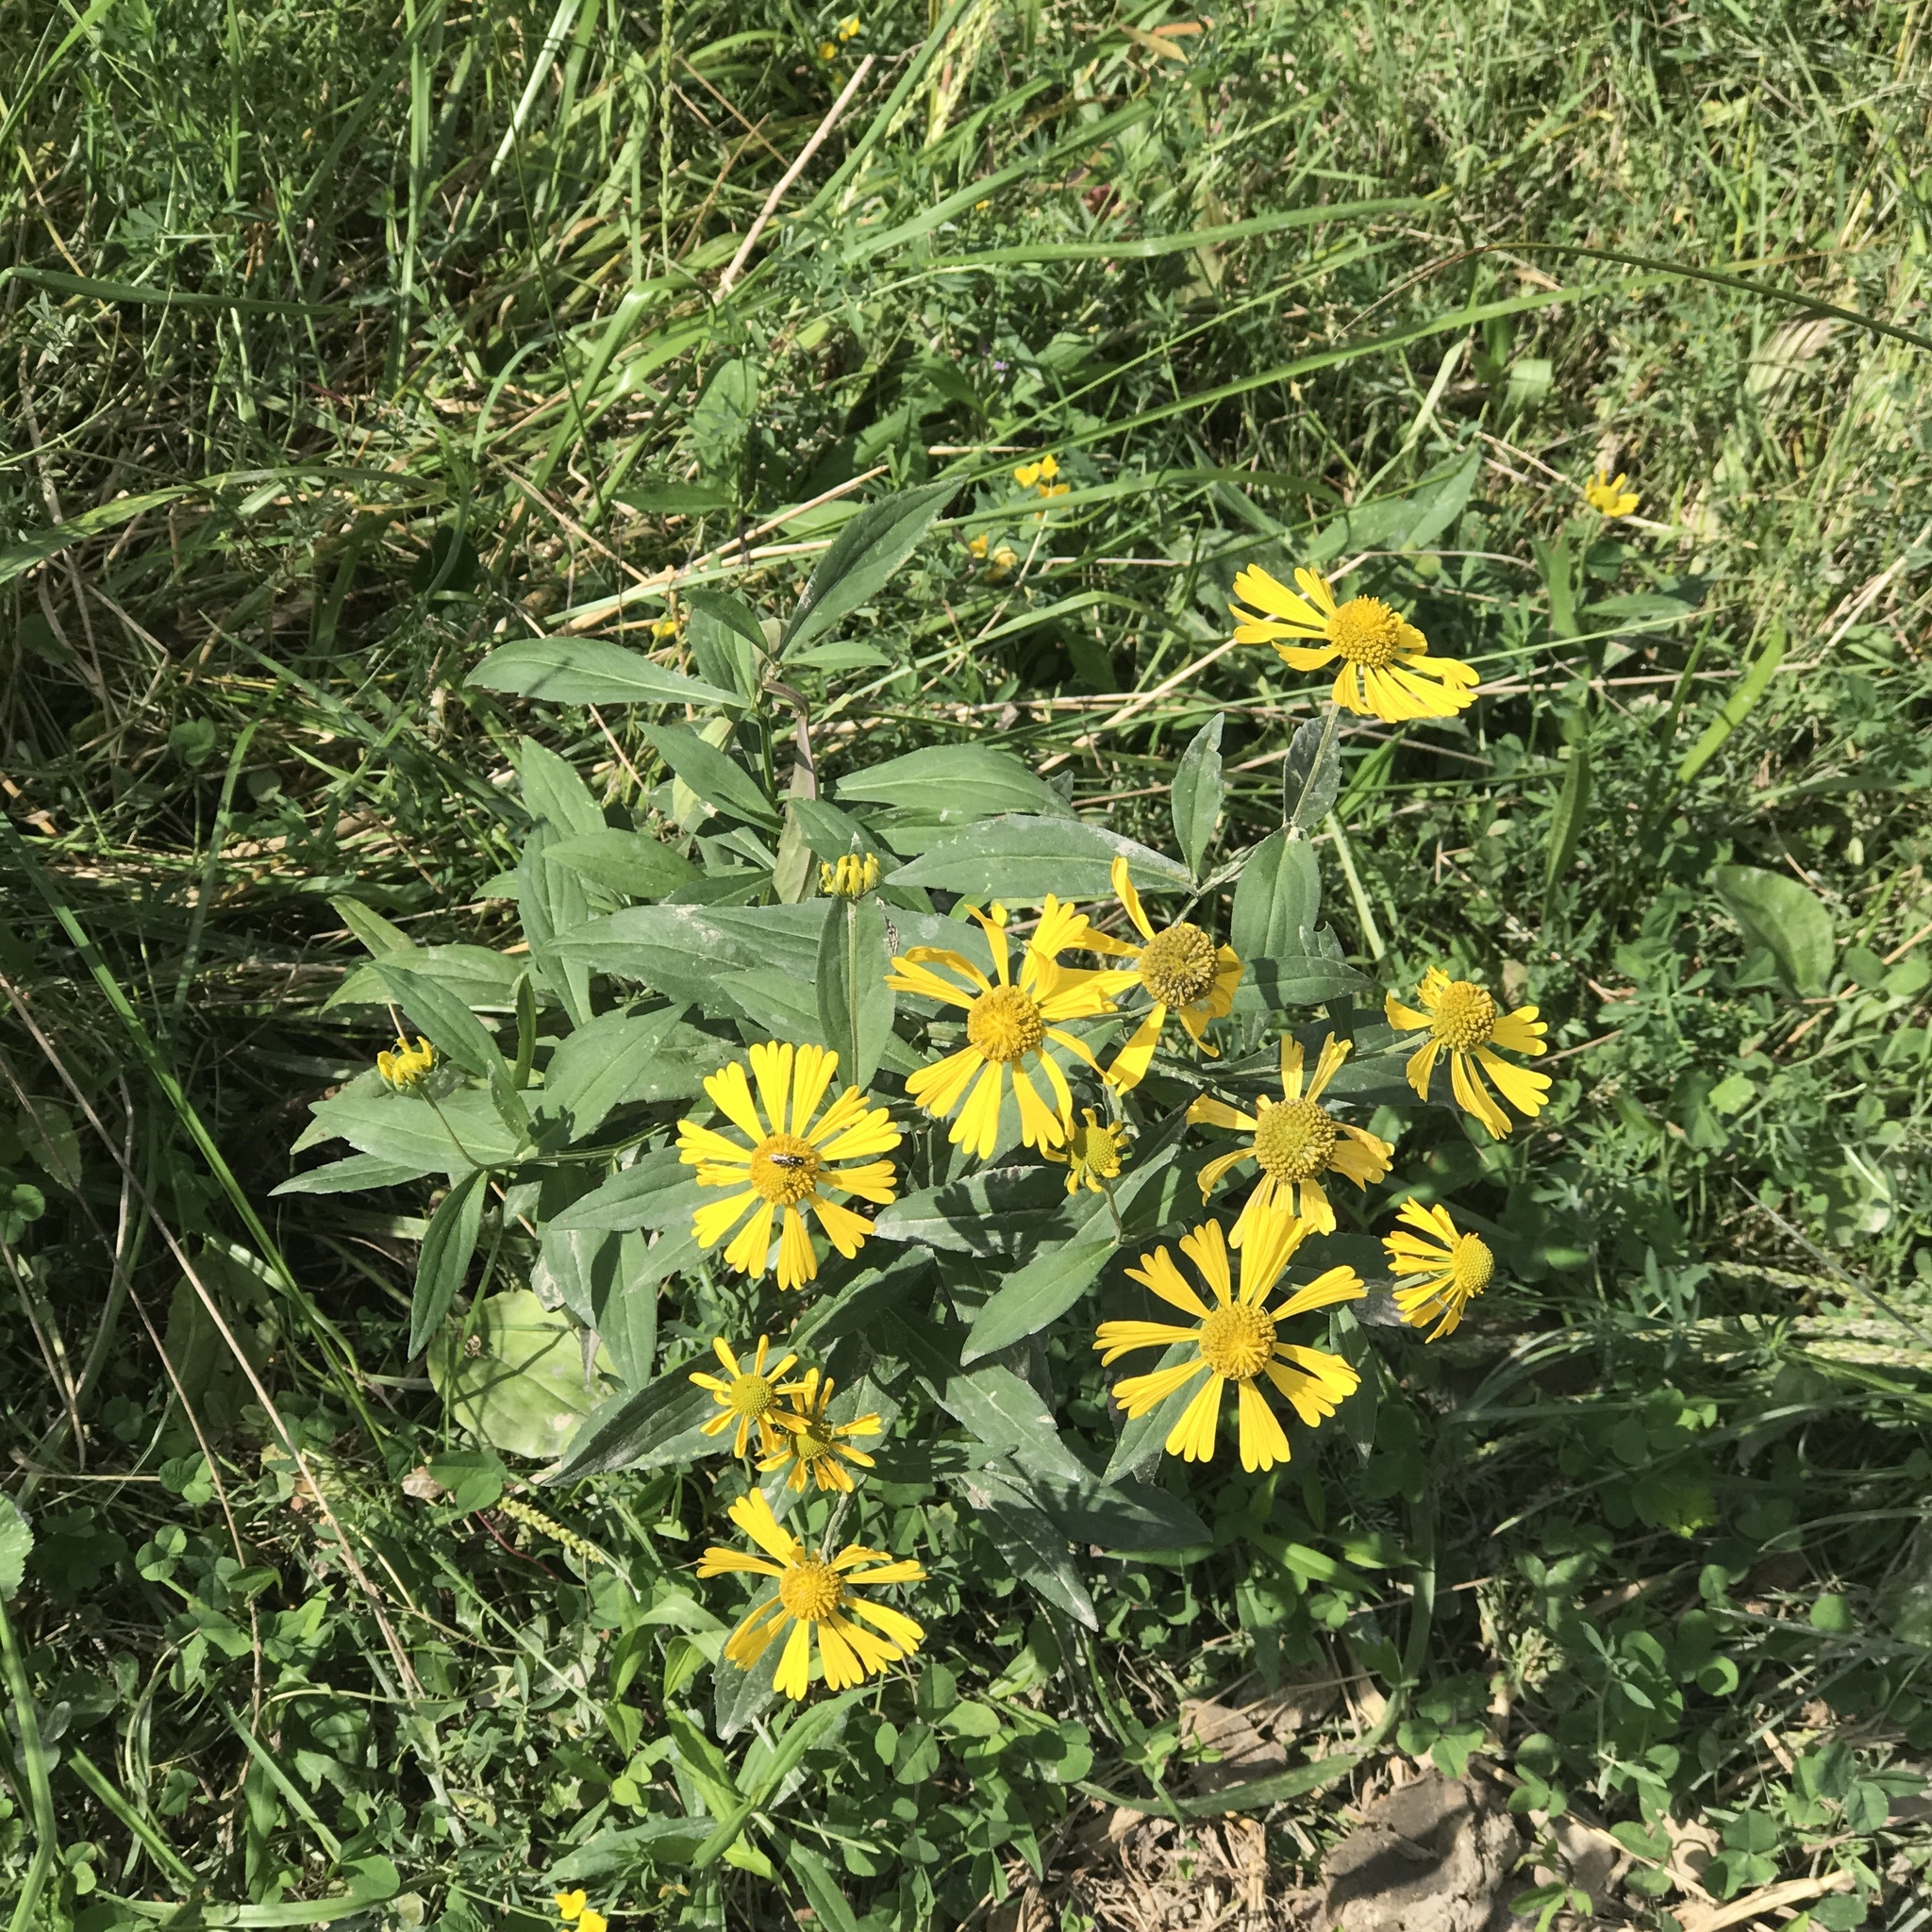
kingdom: Plantae
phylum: Tracheophyta
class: Magnoliopsida
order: Asterales
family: Asteraceae
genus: Helenium
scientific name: Helenium autumnale
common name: Sneezeweed
